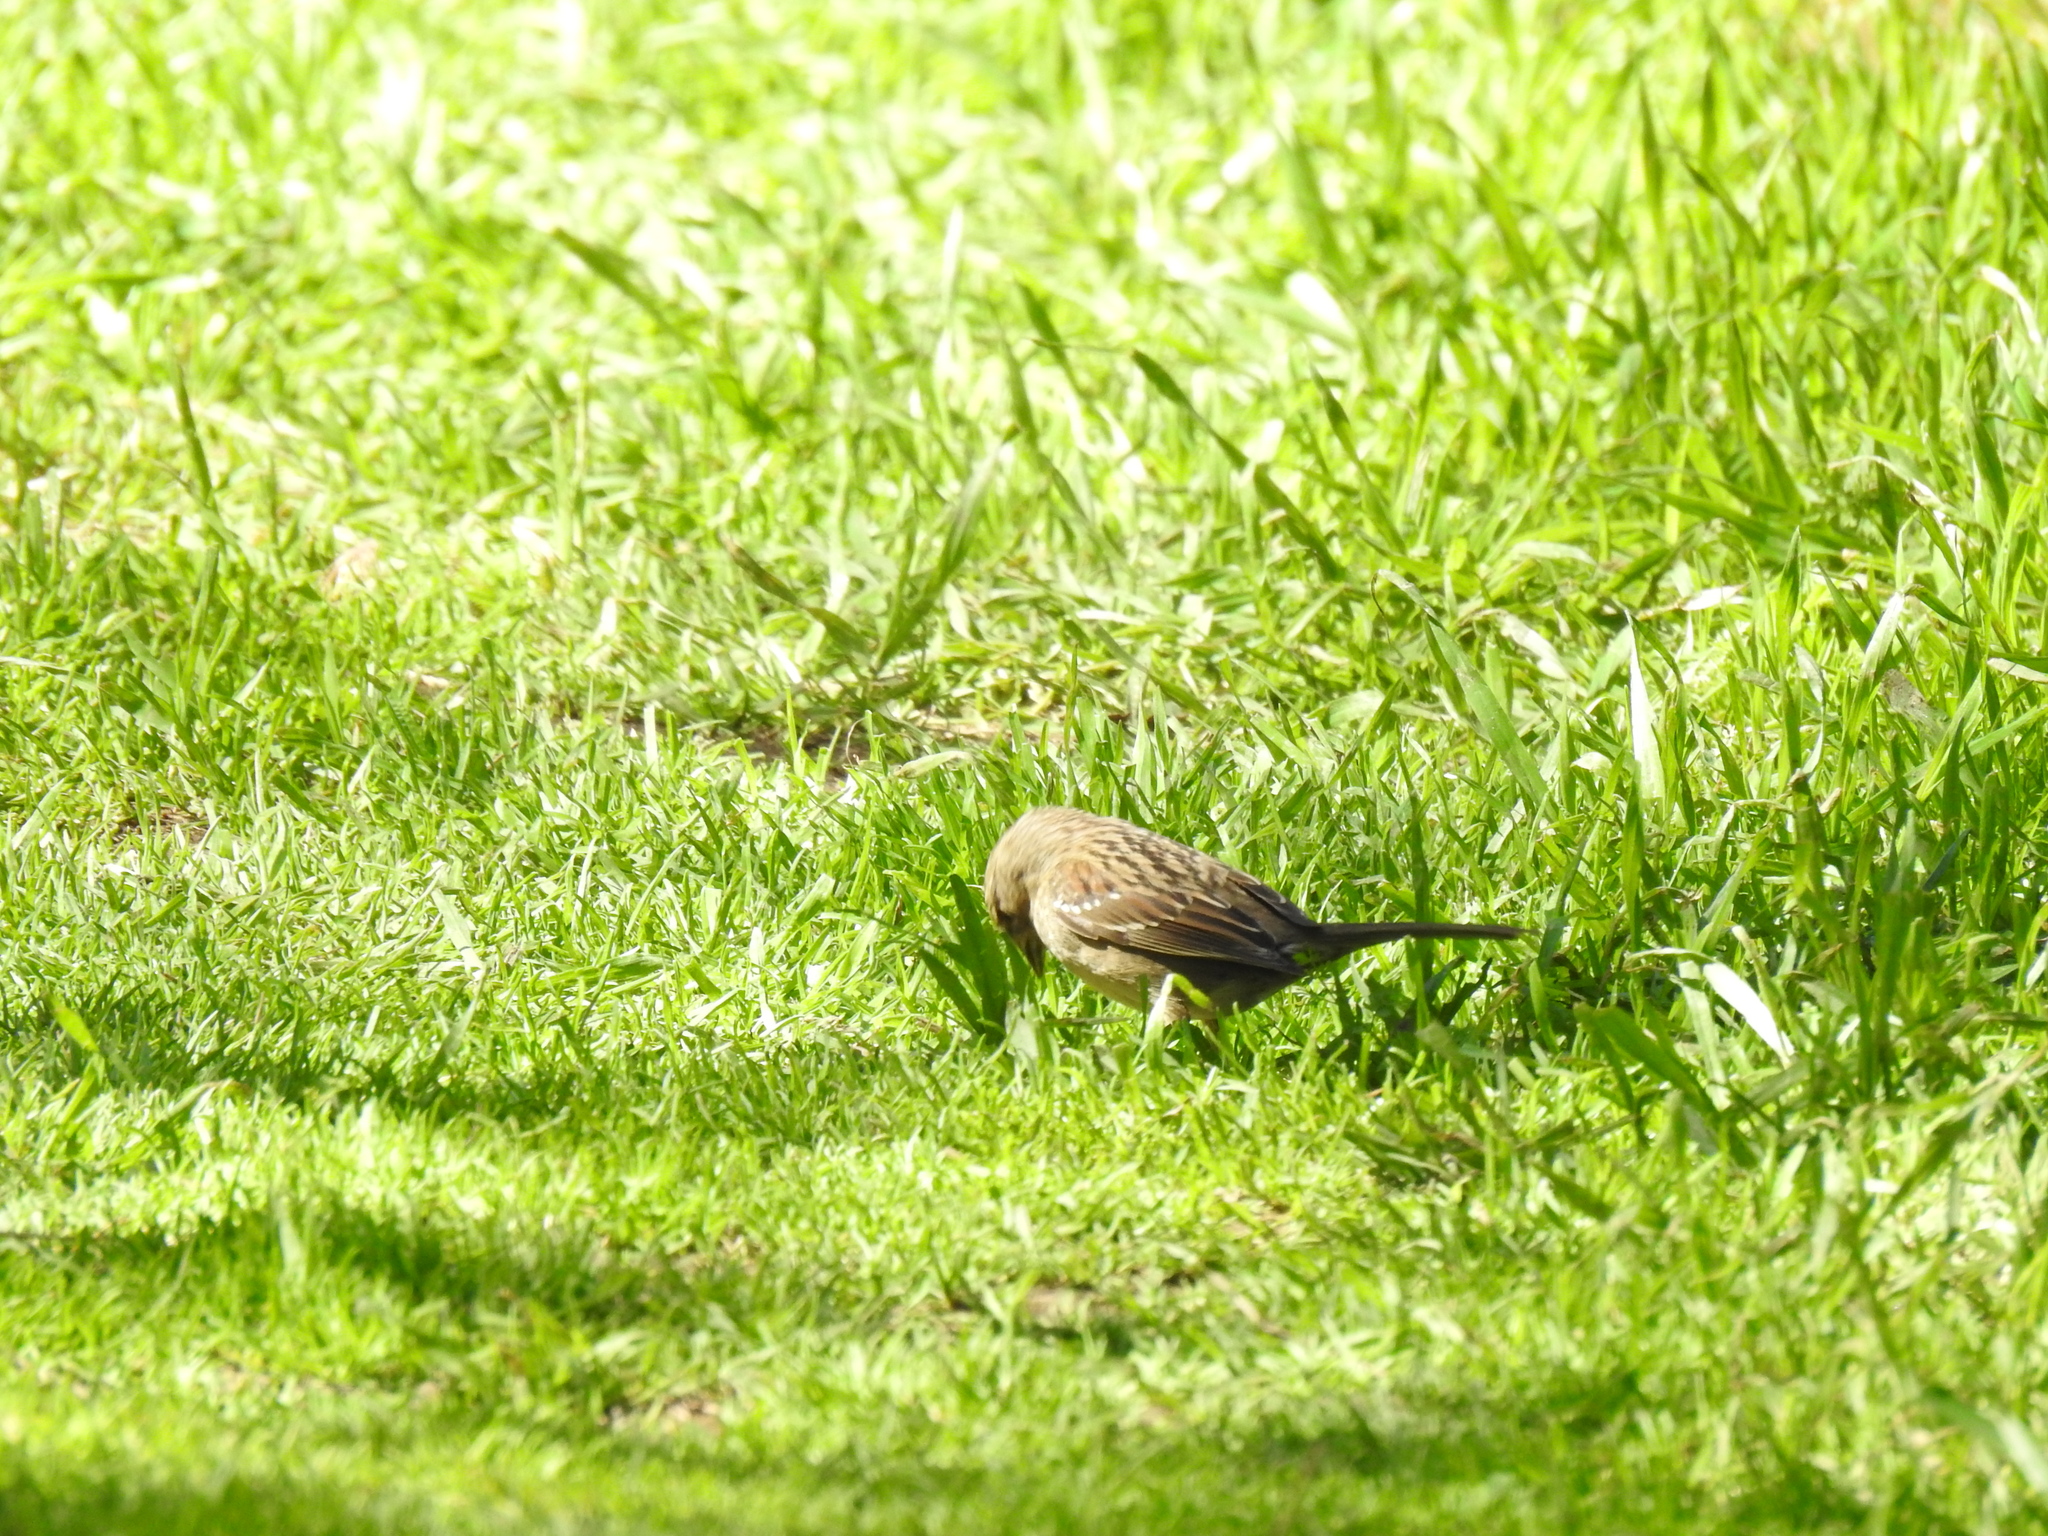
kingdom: Animalia
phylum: Chordata
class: Aves
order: Passeriformes
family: Passerellidae
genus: Zonotrichia
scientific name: Zonotrichia atricapilla
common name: Golden-crowned sparrow
